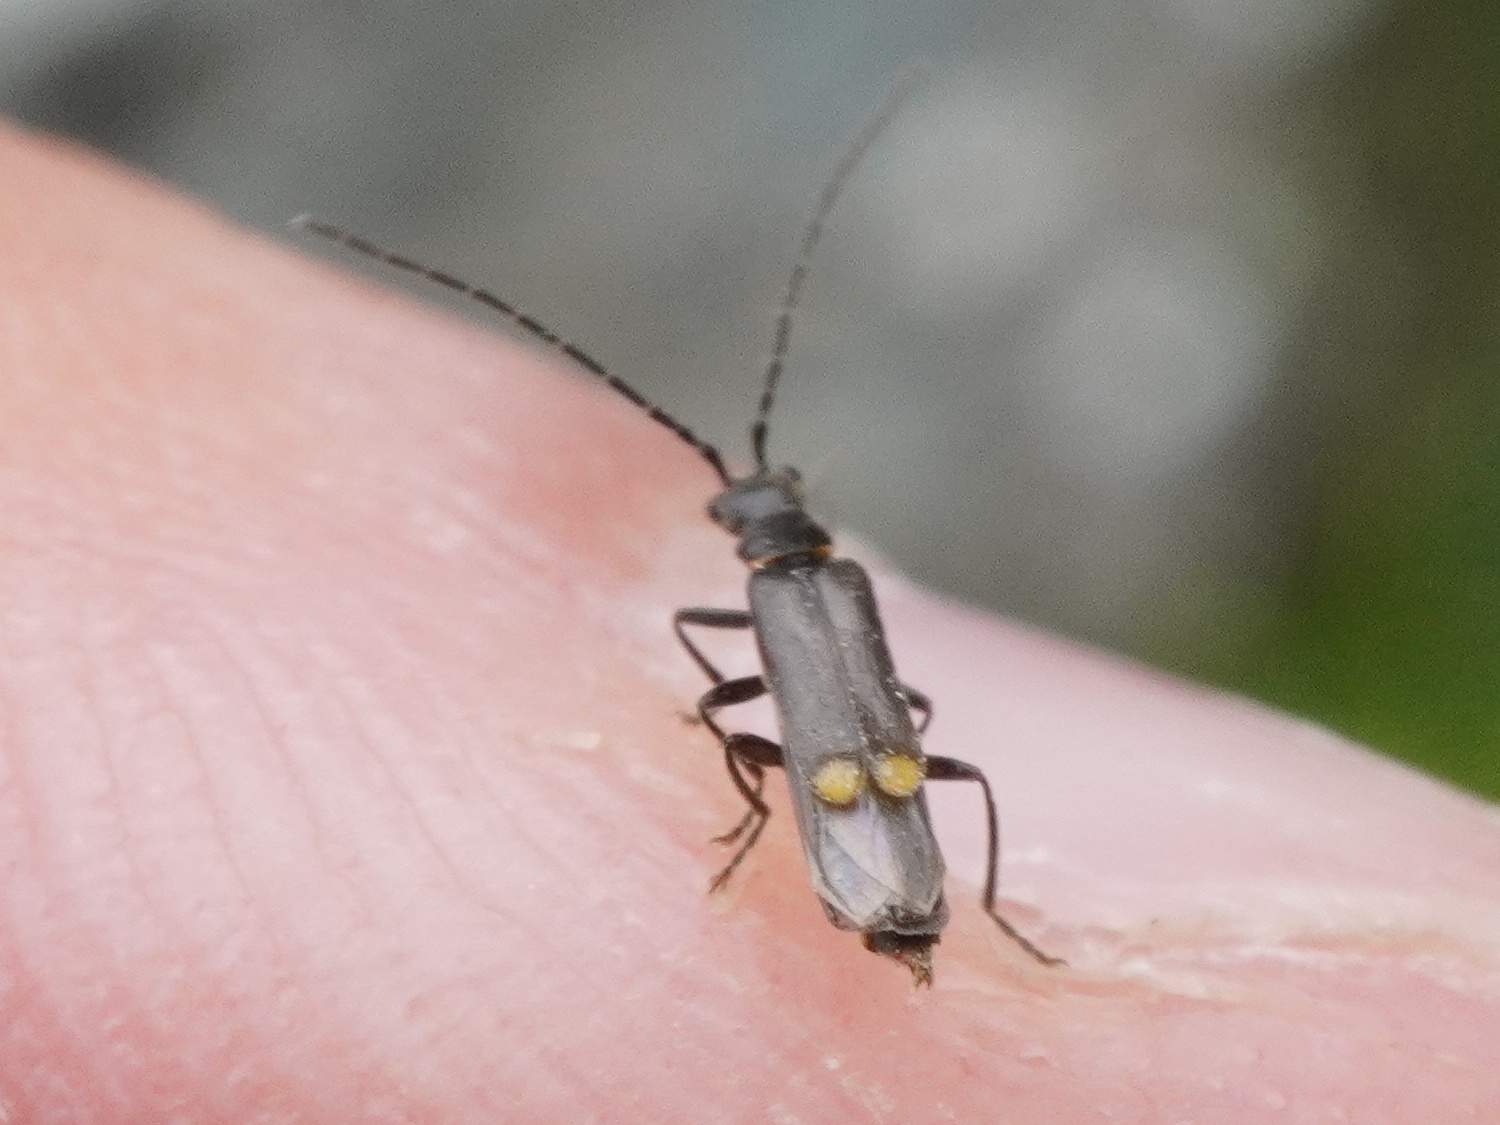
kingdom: Animalia
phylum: Arthropoda
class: Insecta
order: Coleoptera
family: Cantharidae
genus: Malthodes
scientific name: Malthodes
